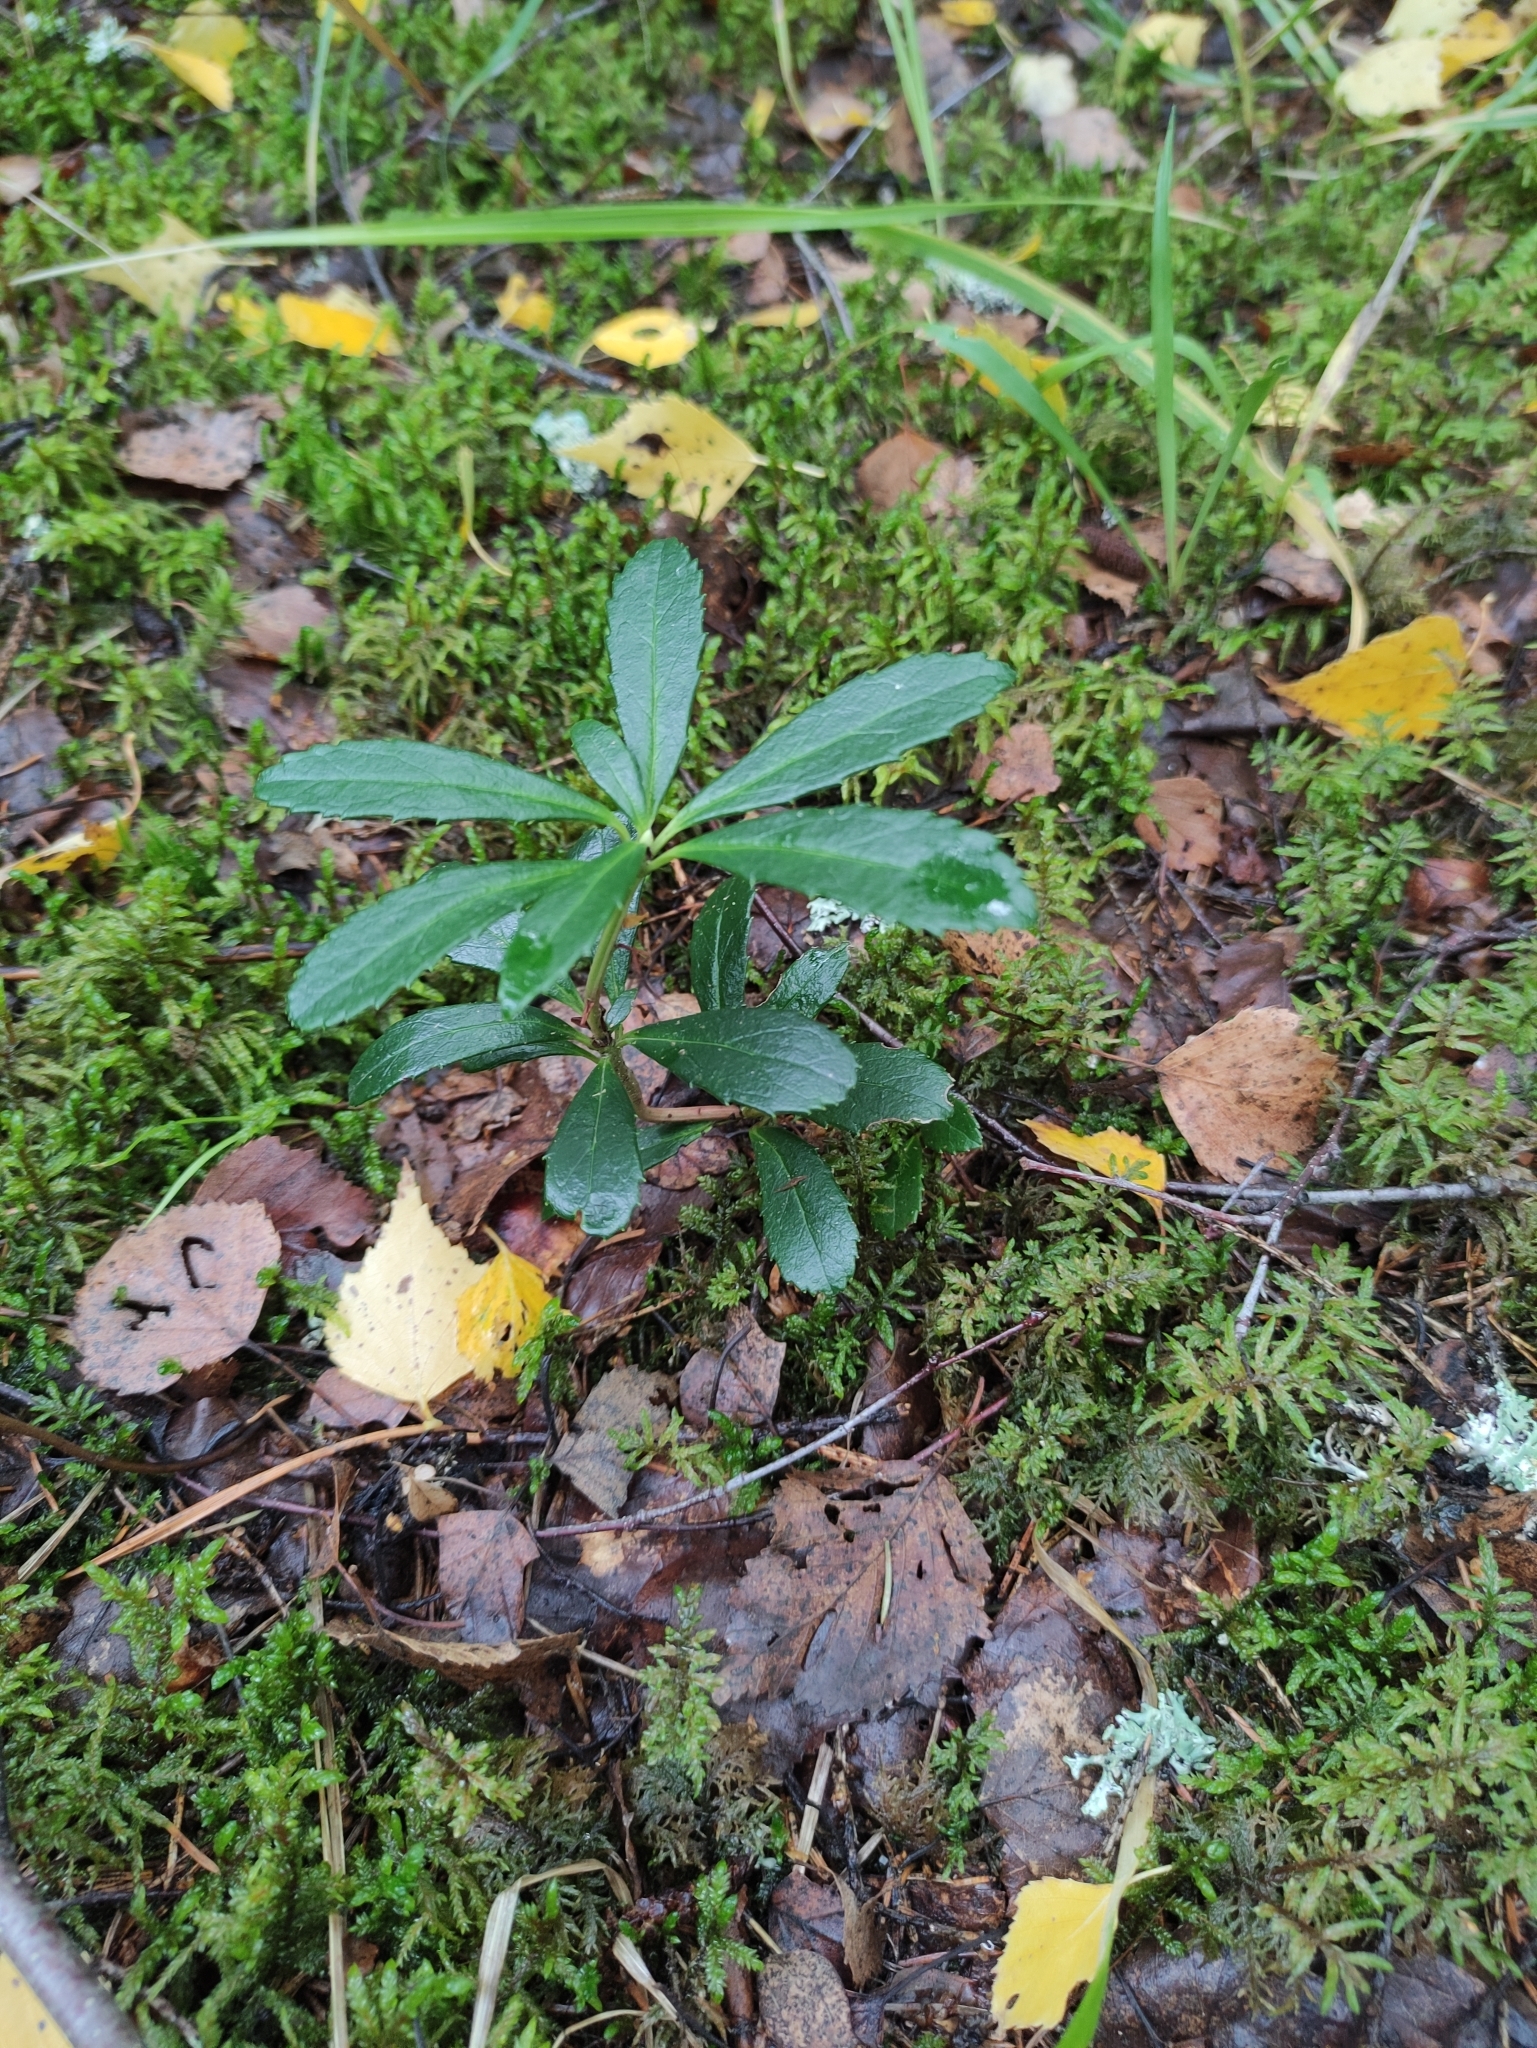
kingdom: Plantae
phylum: Tracheophyta
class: Magnoliopsida
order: Ericales
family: Ericaceae
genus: Chimaphila
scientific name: Chimaphila umbellata
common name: Pipsissewa
